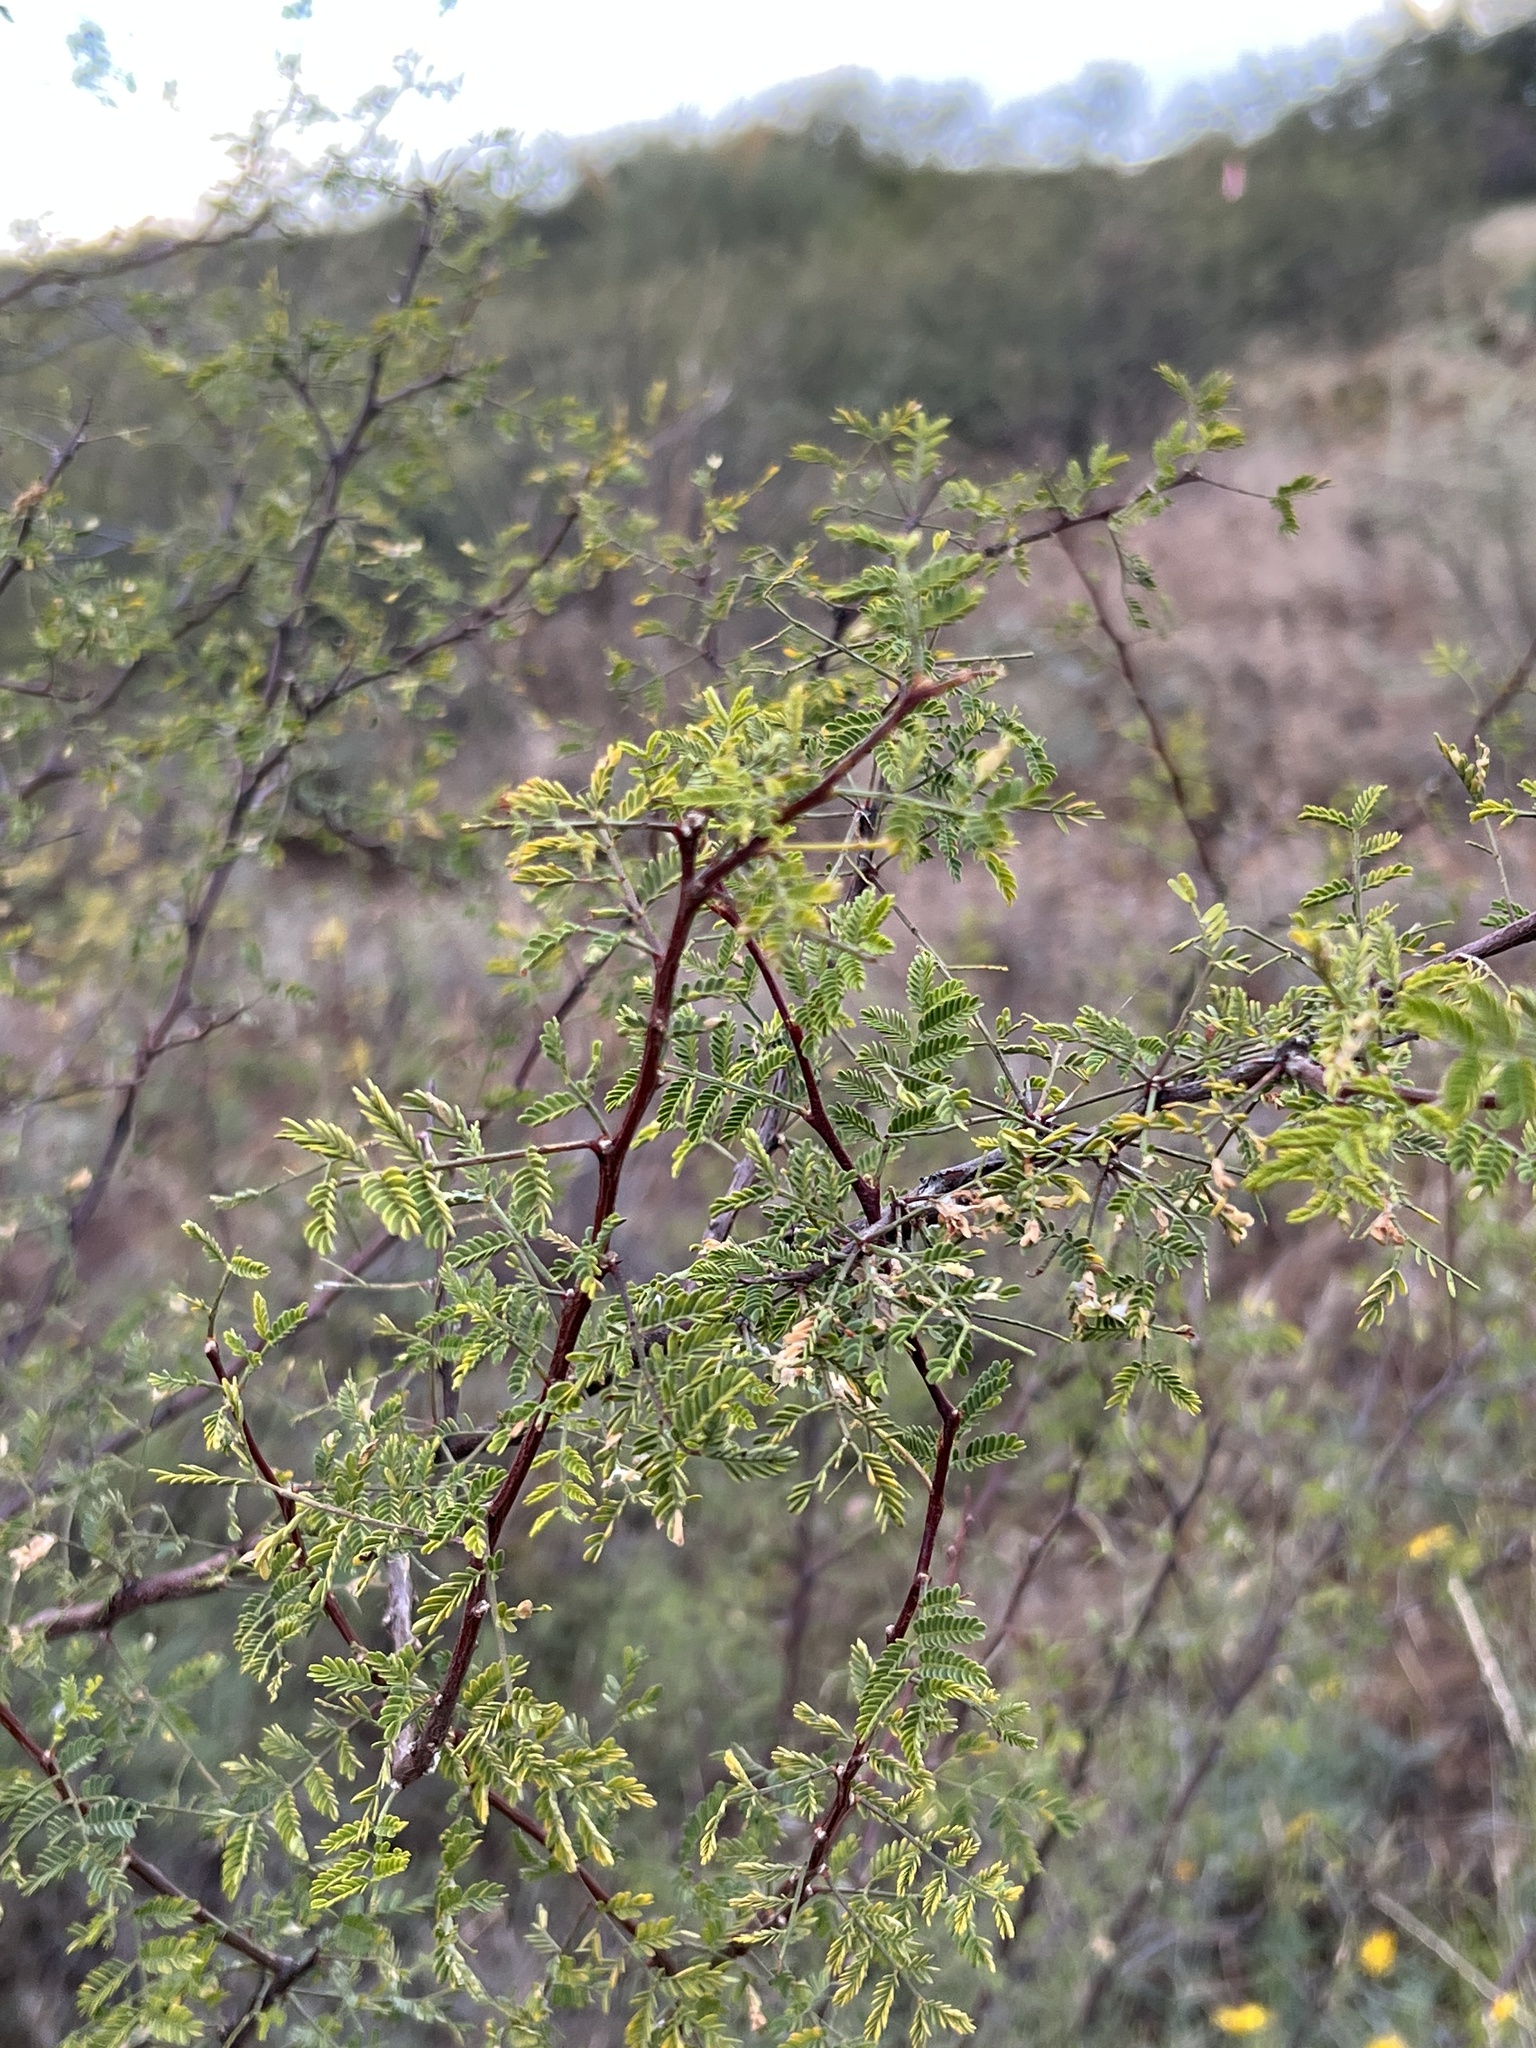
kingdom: Plantae
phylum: Tracheophyta
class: Magnoliopsida
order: Fabales
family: Fabaceae
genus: Vachellia
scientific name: Vachellia constricta
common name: Mescat acacia
